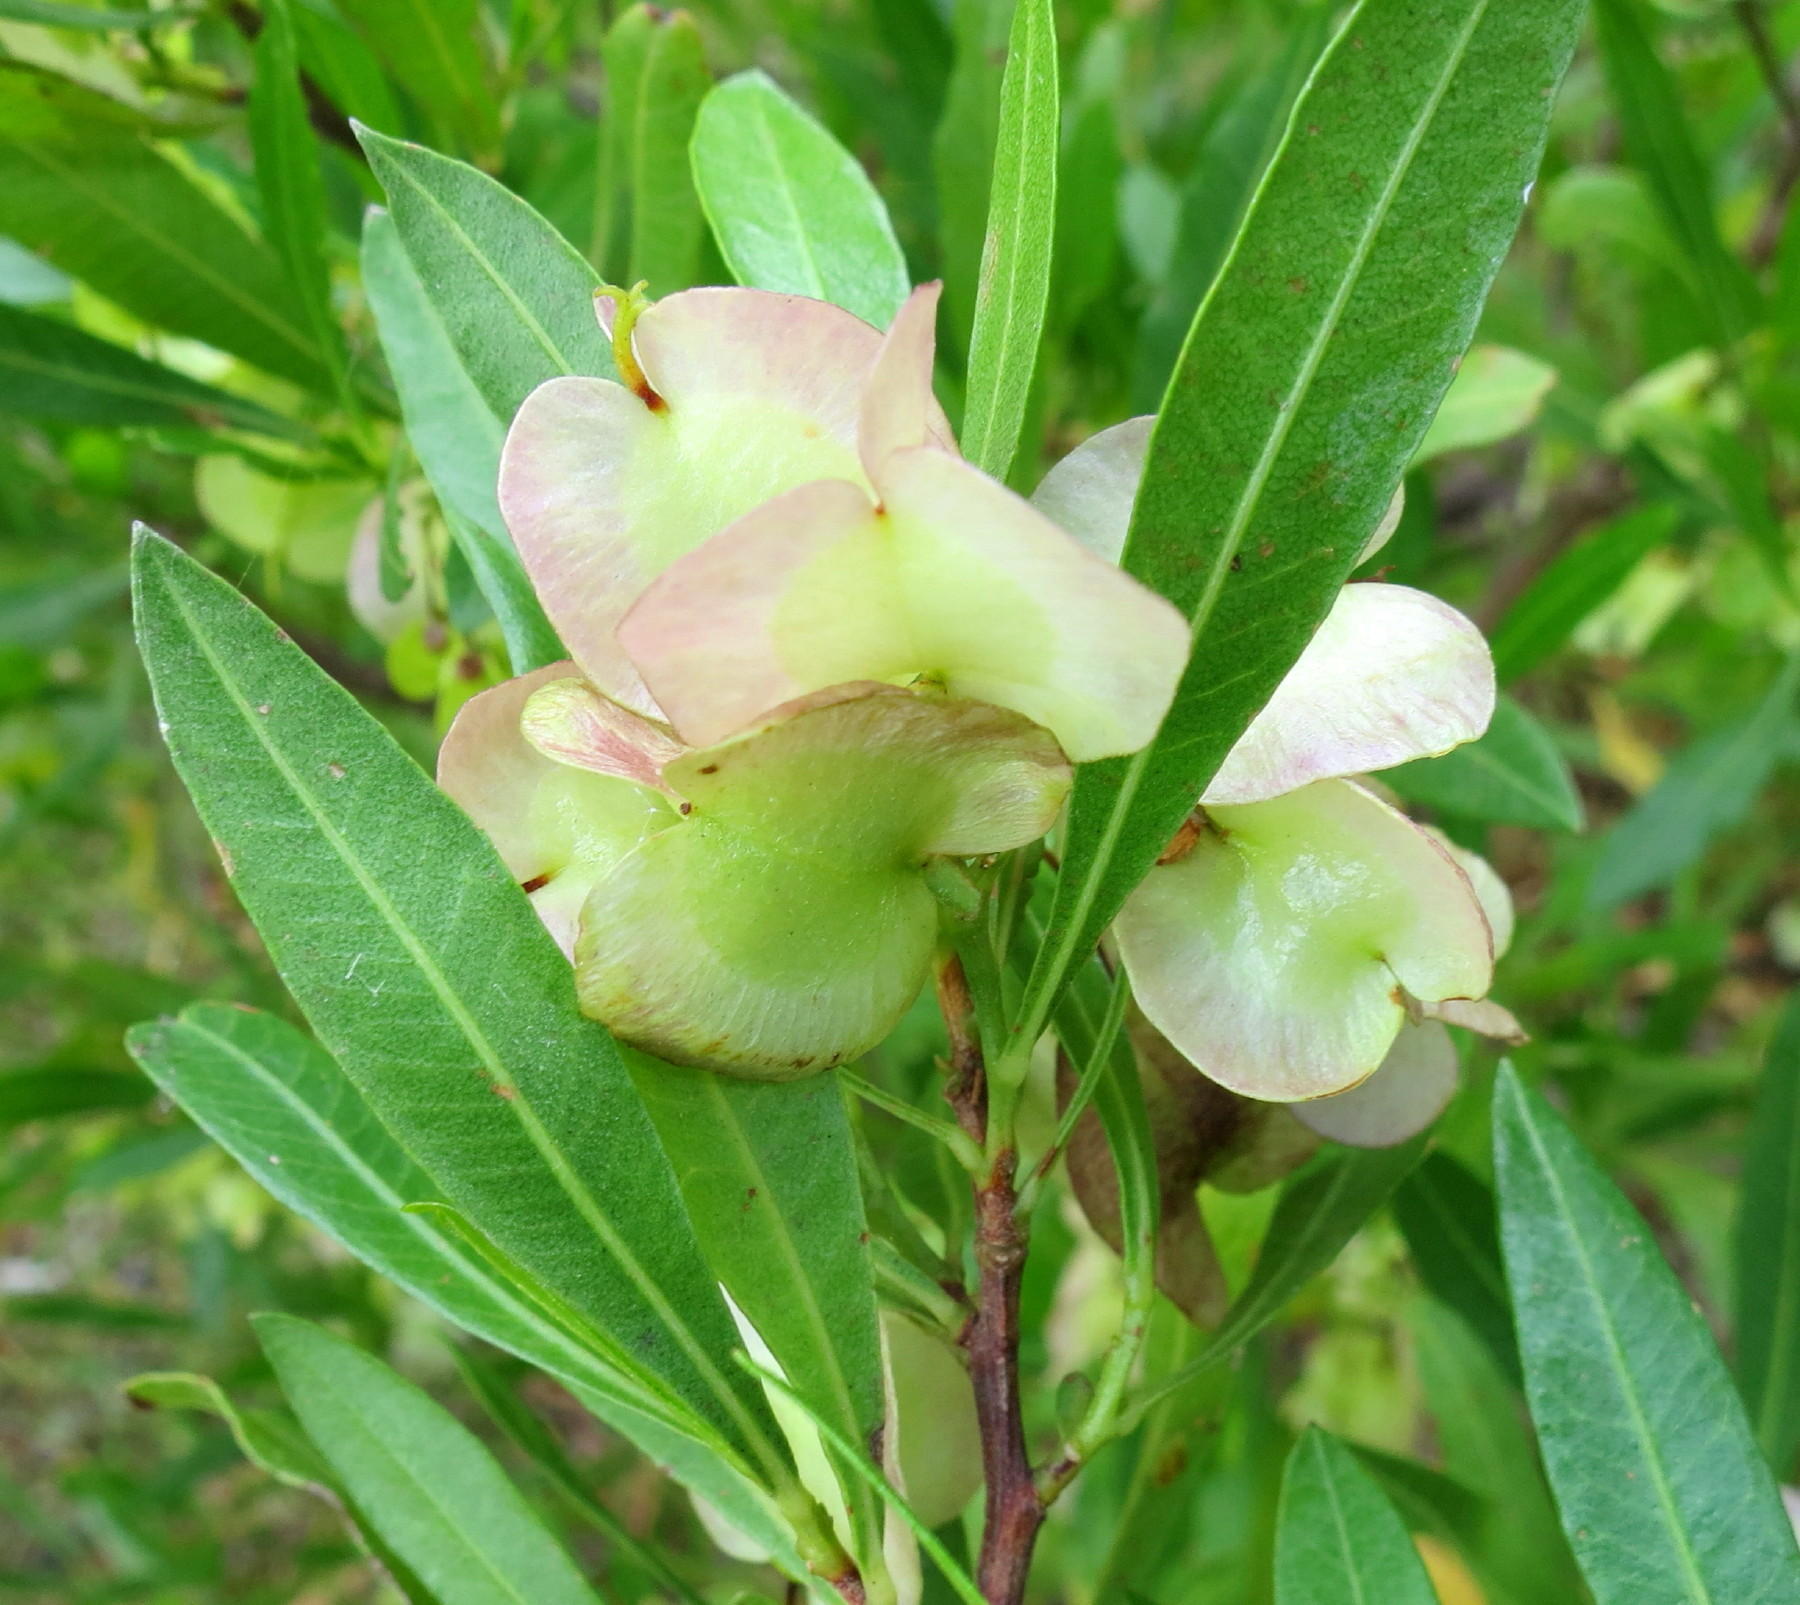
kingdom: Plantae
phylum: Tracheophyta
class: Magnoliopsida
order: Sapindales
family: Sapindaceae
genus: Dodonaea
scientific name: Dodonaea viscosa
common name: Hopbush
